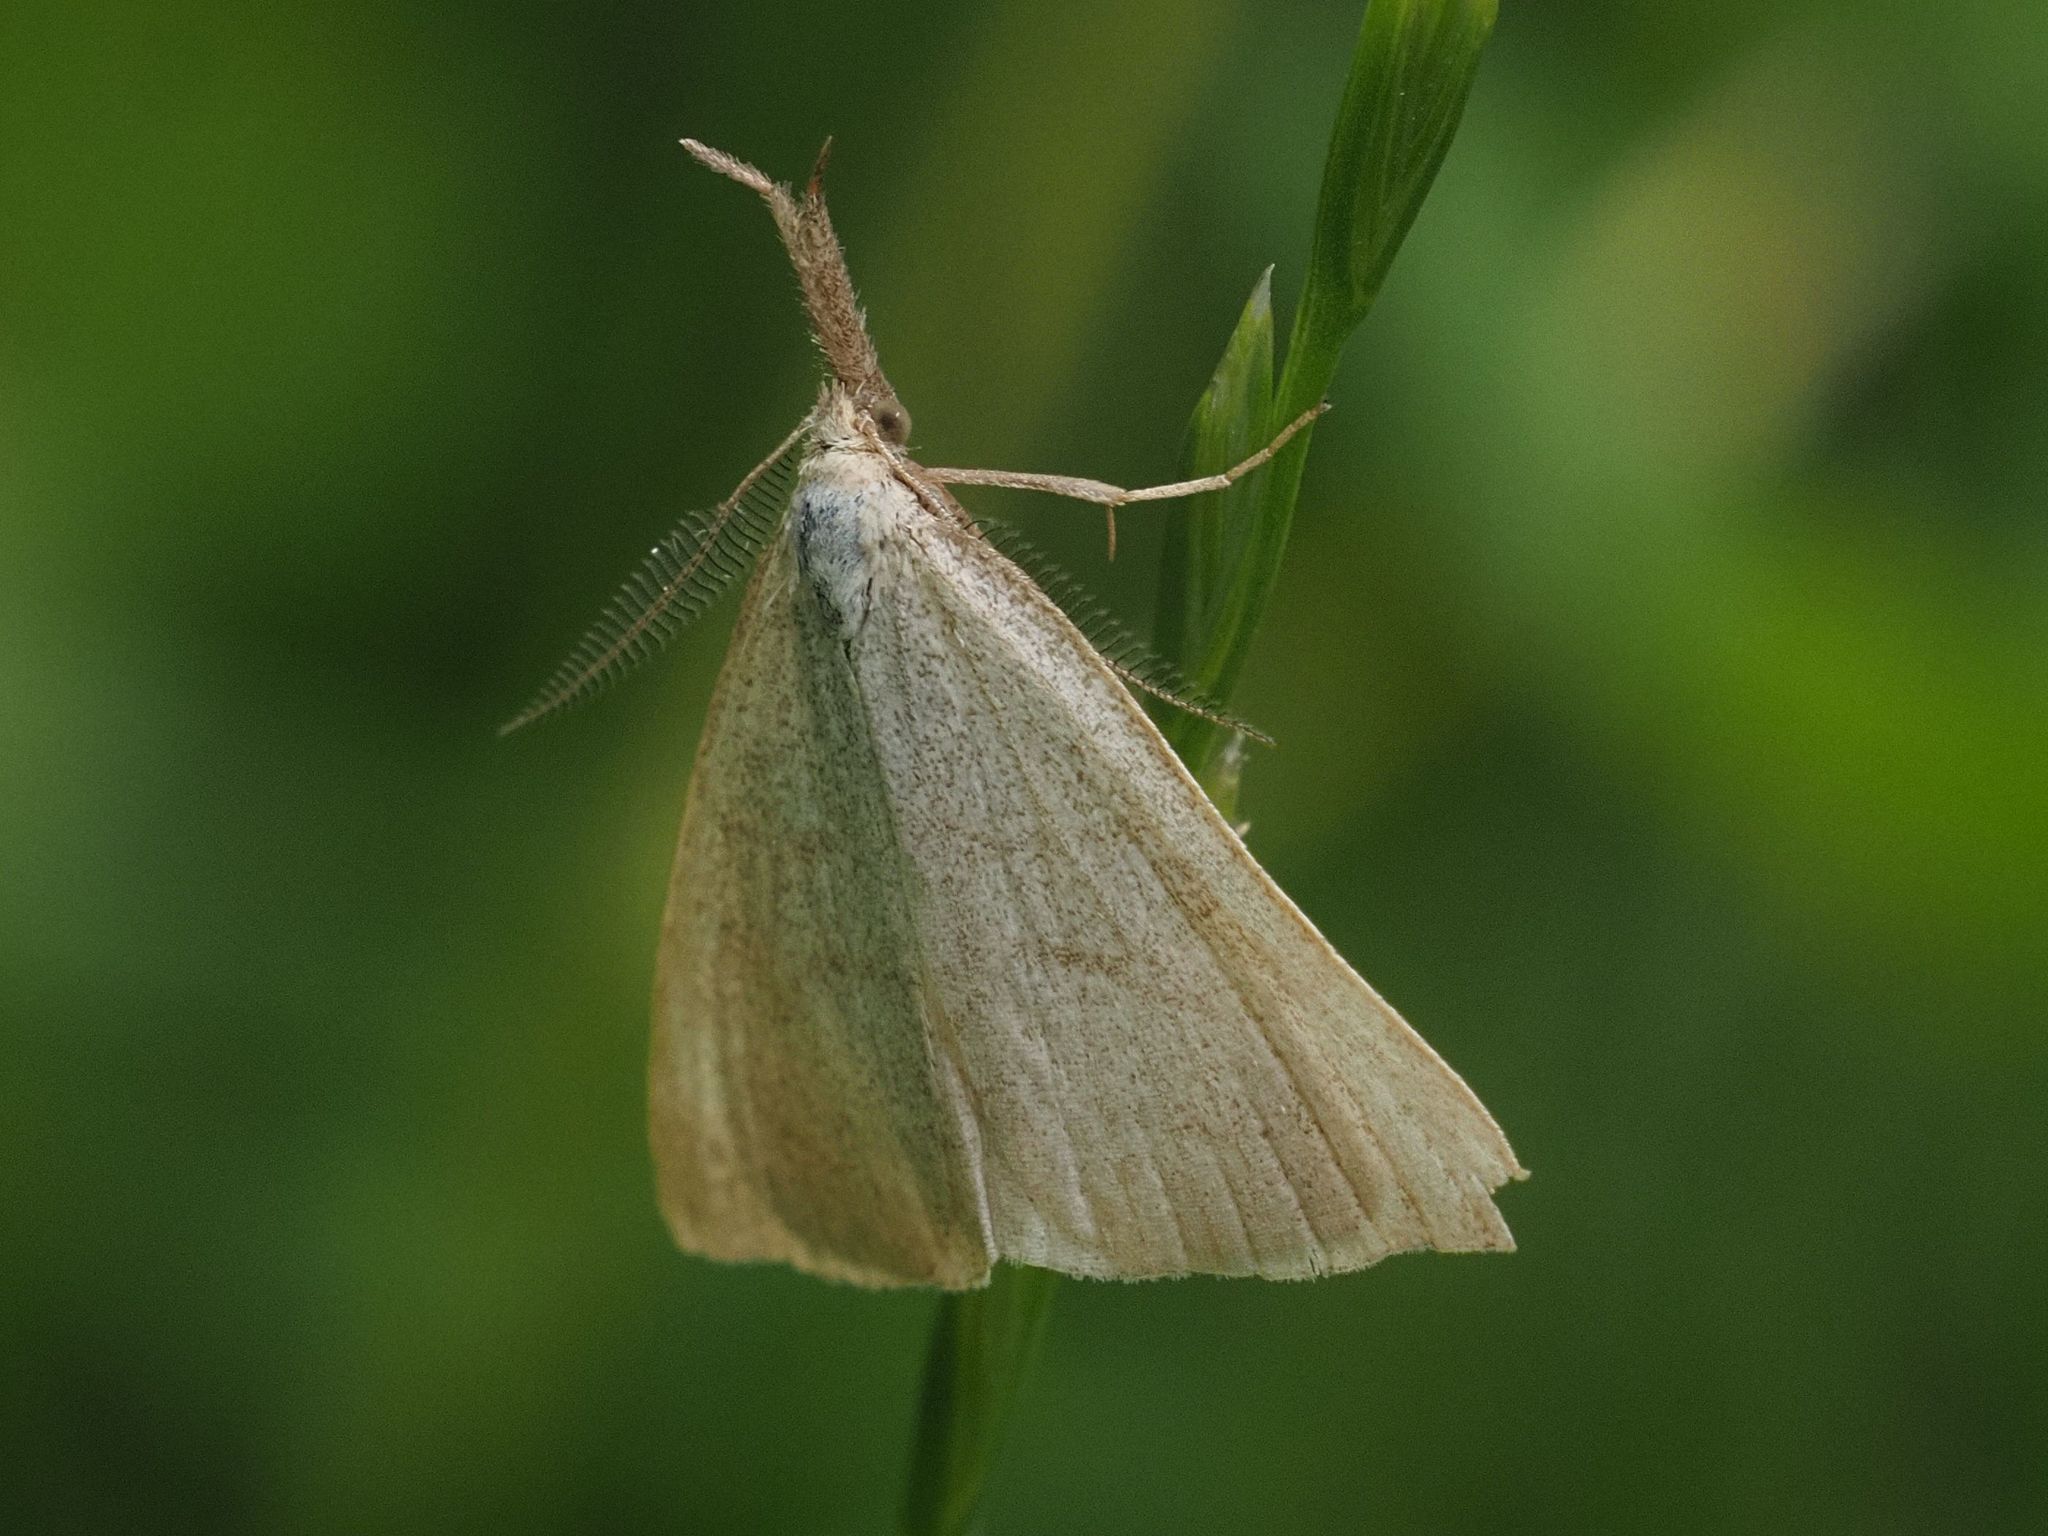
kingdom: Animalia
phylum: Arthropoda
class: Insecta
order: Lepidoptera
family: Erebidae
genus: Polypogon
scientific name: Polypogon tentacularia
